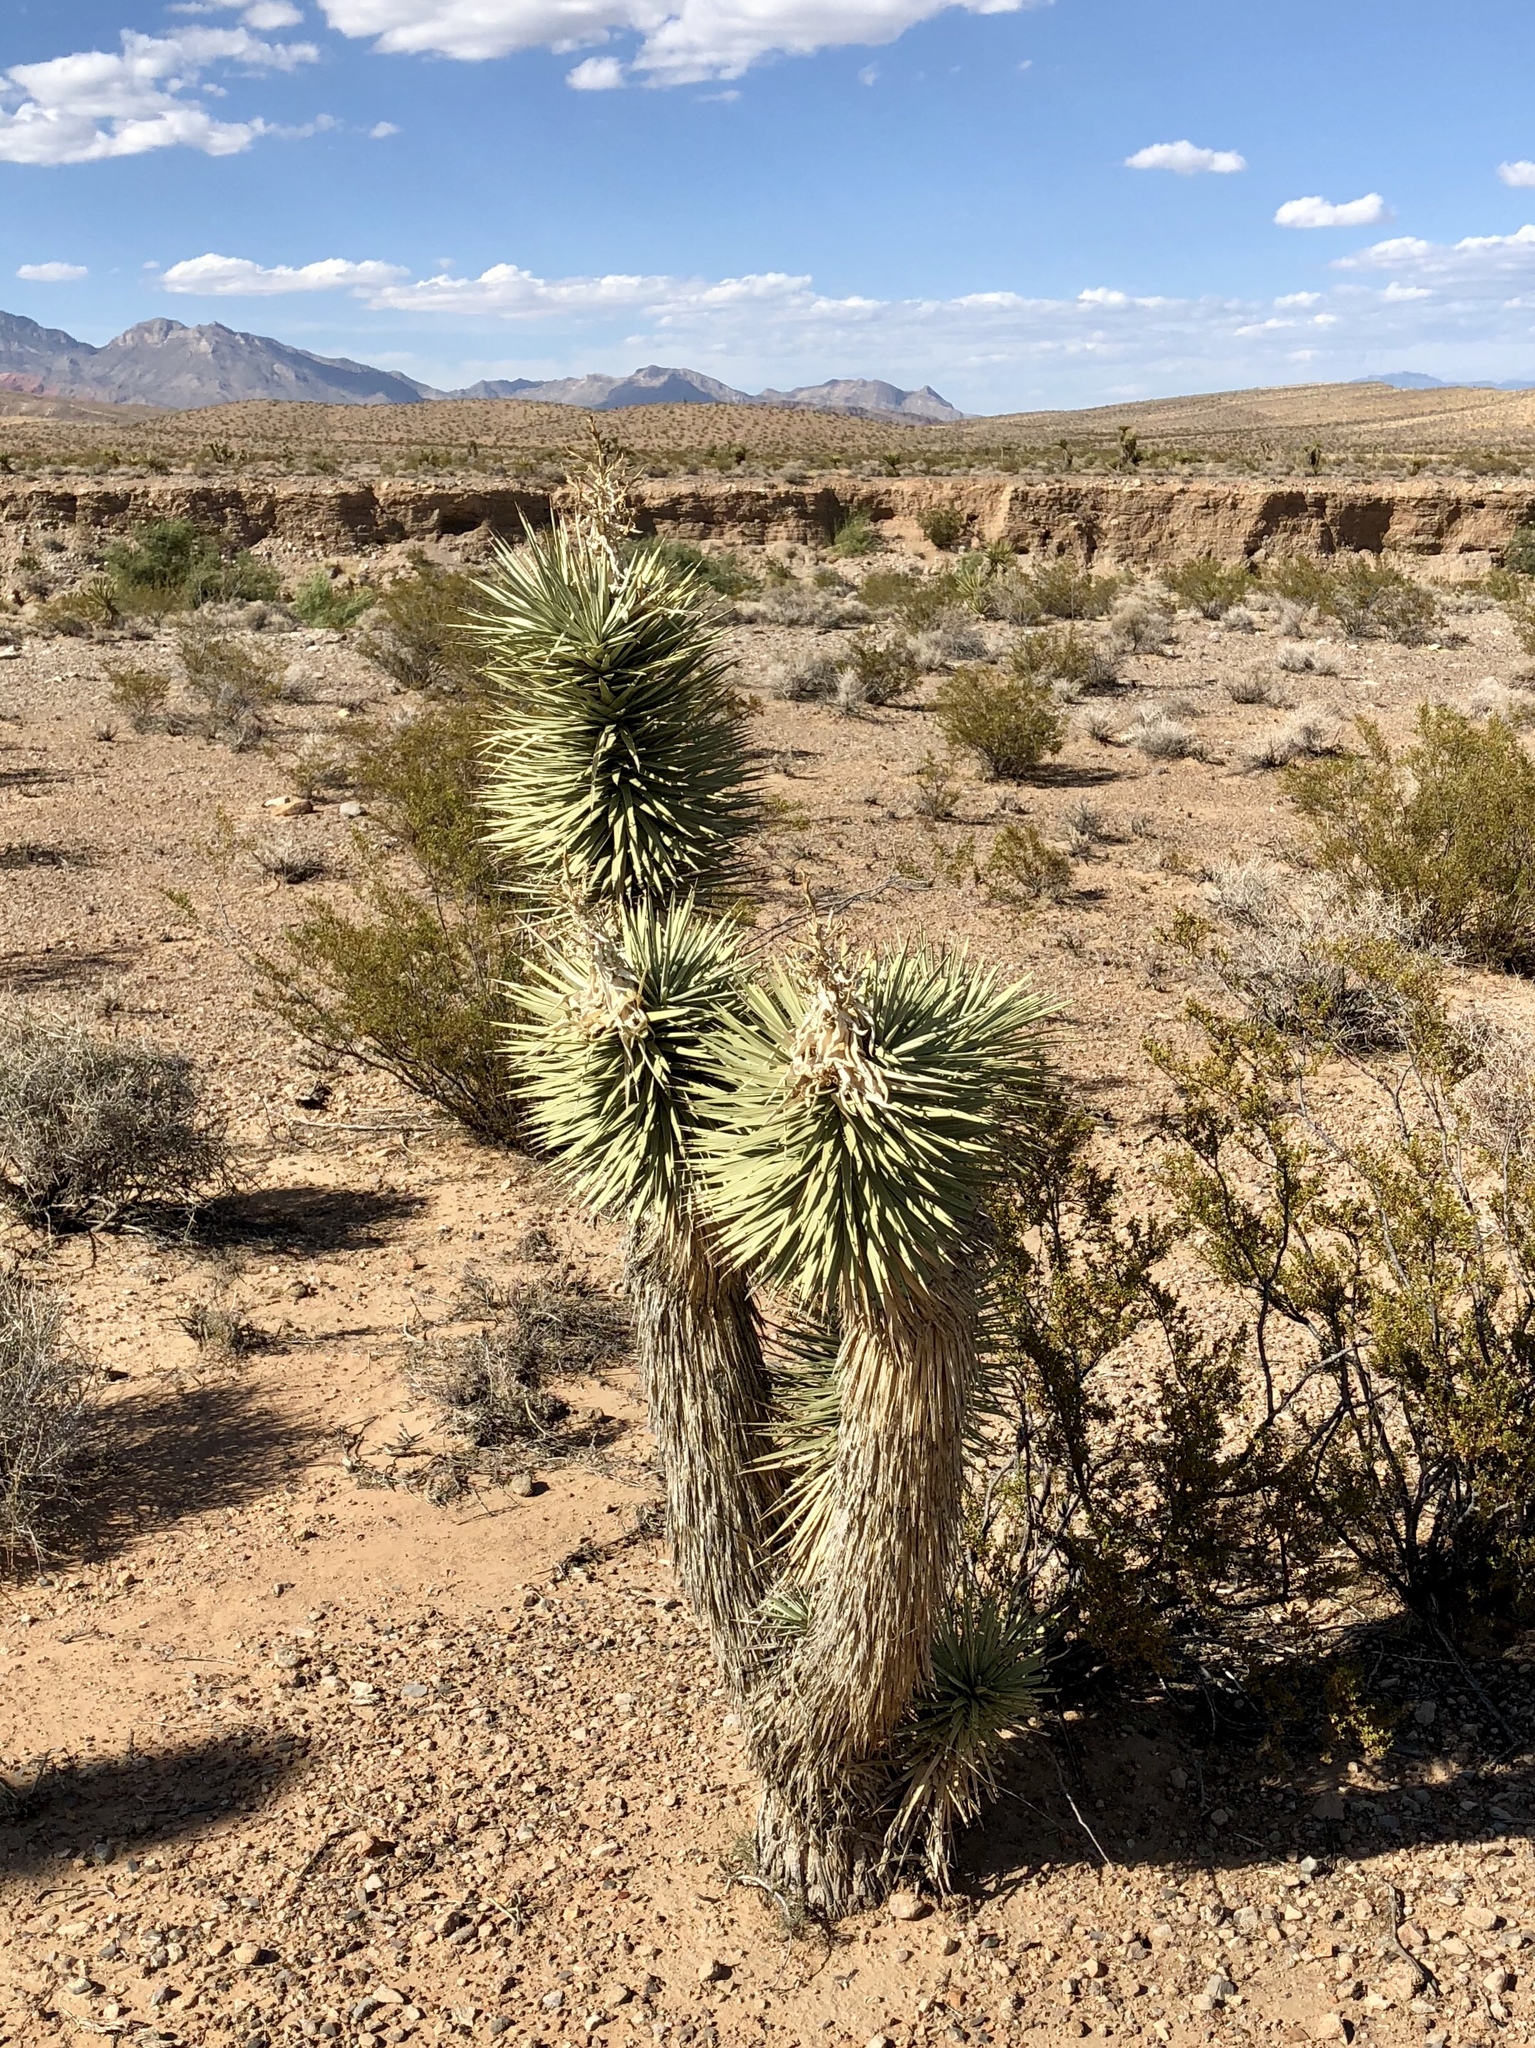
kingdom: Plantae
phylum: Tracheophyta
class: Liliopsida
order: Asparagales
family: Asparagaceae
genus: Yucca
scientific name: Yucca brevifolia
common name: Joshua tree
